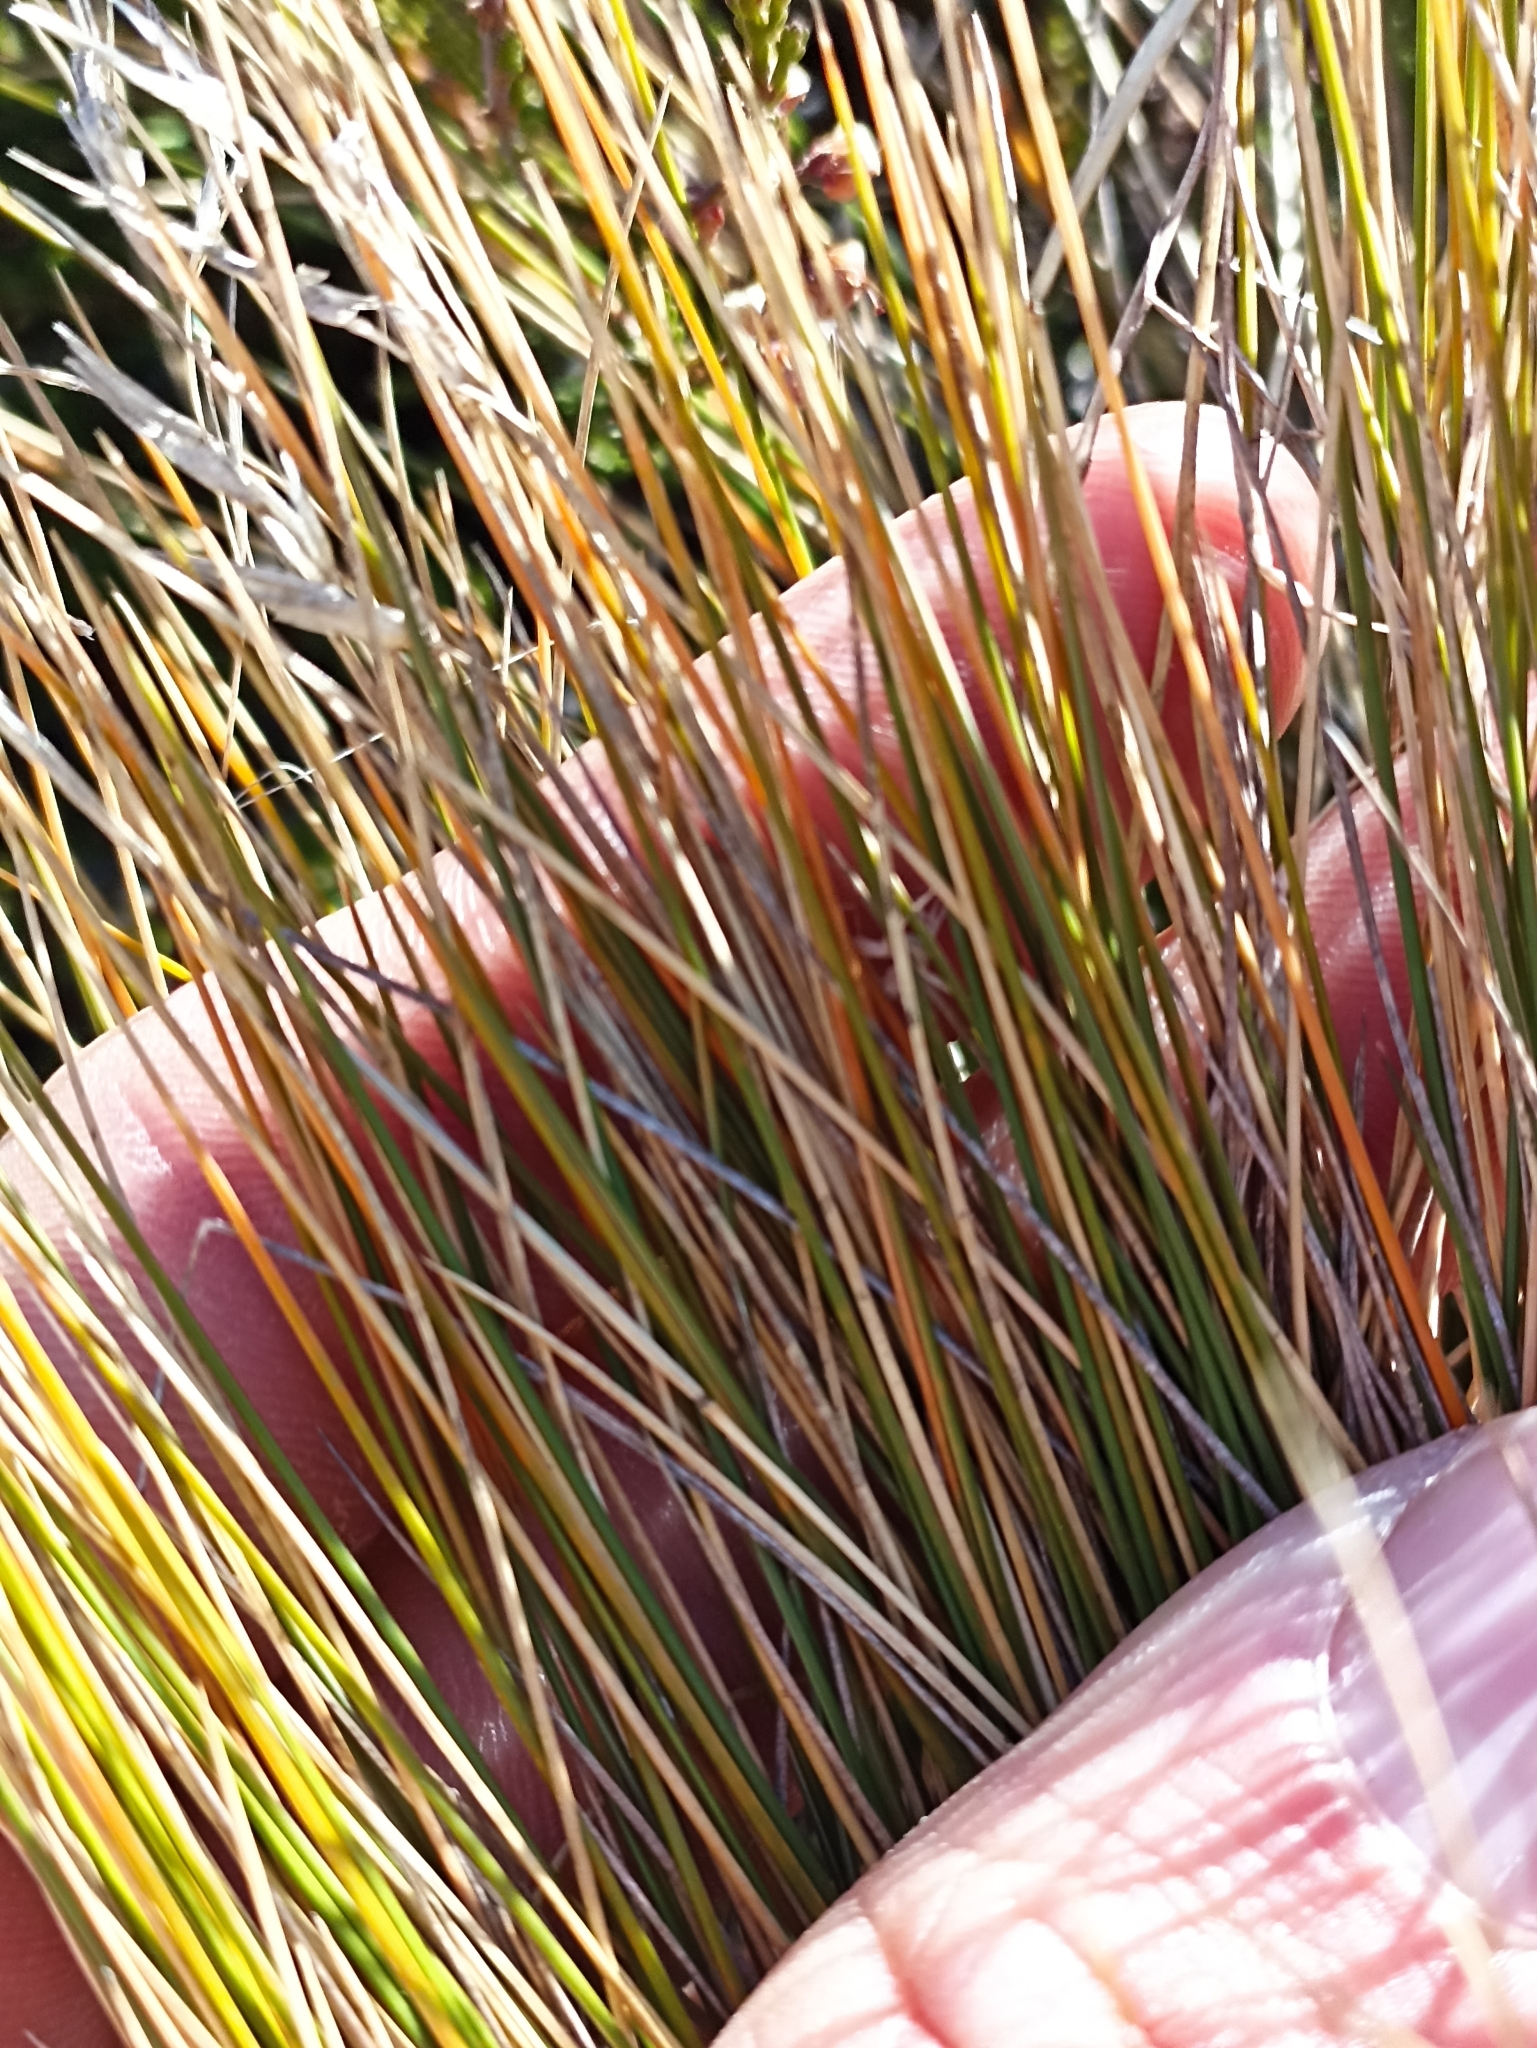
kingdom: Plantae
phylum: Tracheophyta
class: Liliopsida
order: Poales
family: Poaceae
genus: Poa
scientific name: Poa cita
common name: Silver tussock
